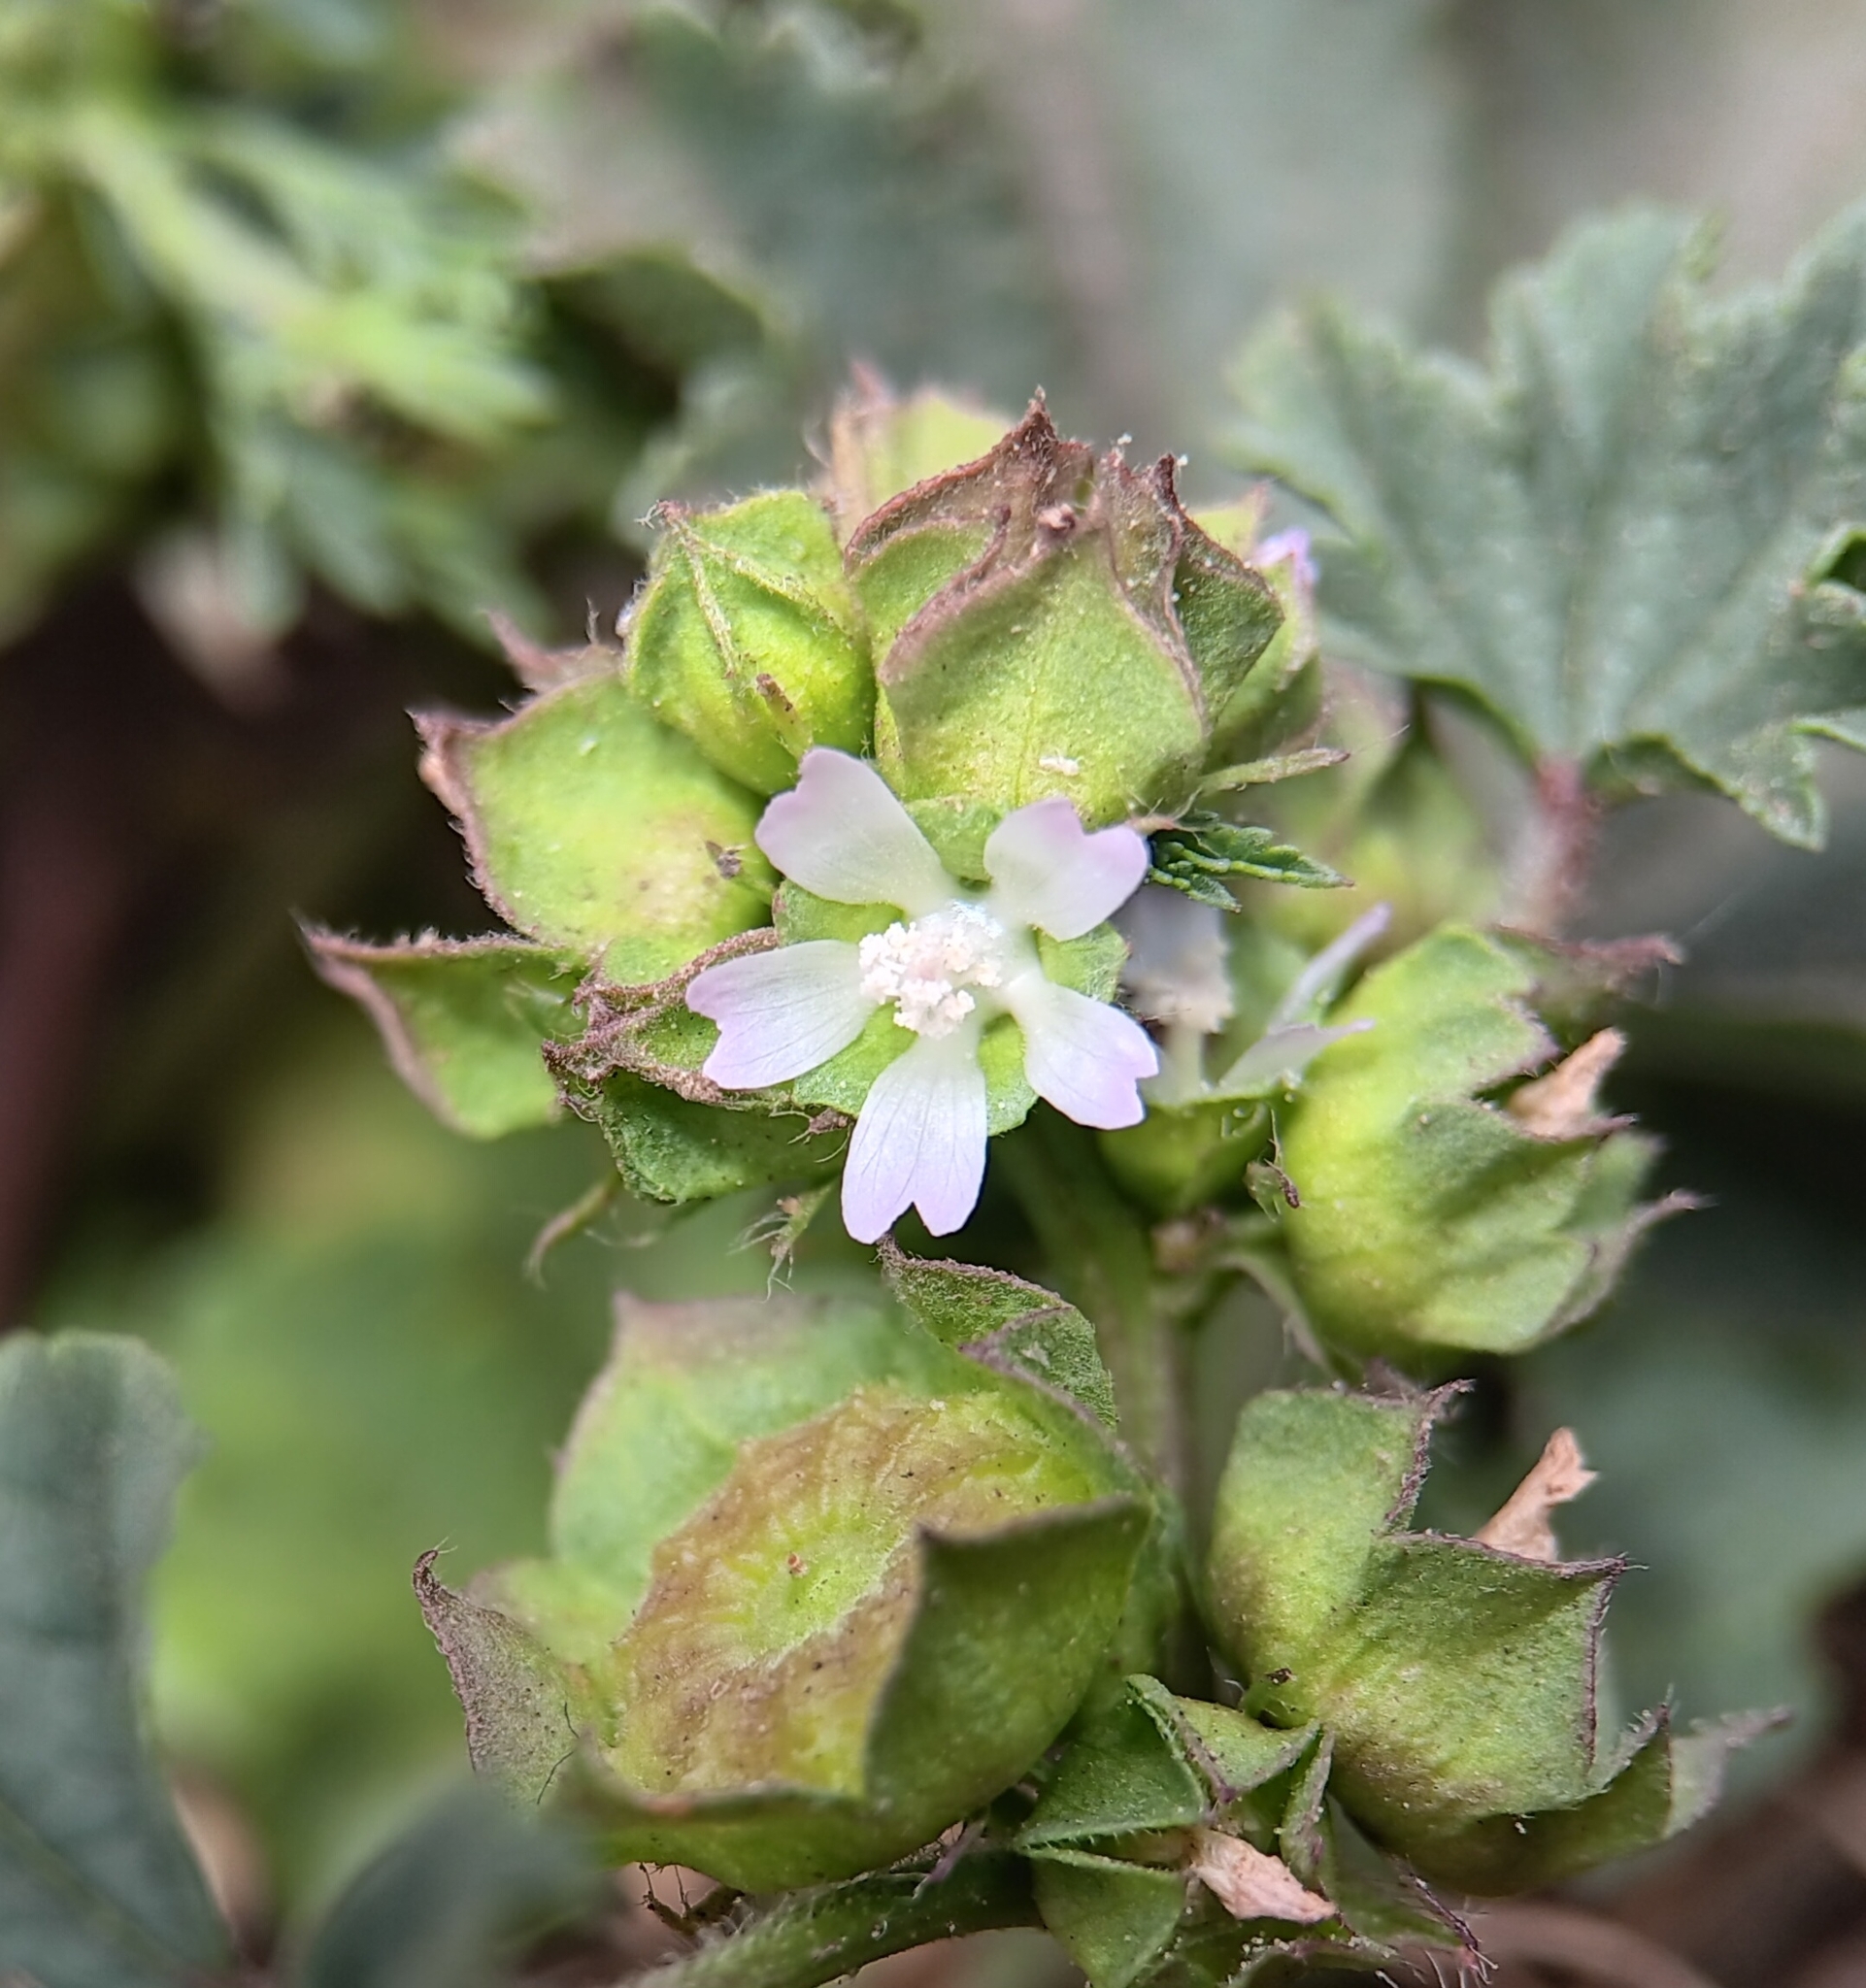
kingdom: Plantae
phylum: Tracheophyta
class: Magnoliopsida
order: Malvales
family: Malvaceae
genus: Malva
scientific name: Malva parviflora
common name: Least mallow
